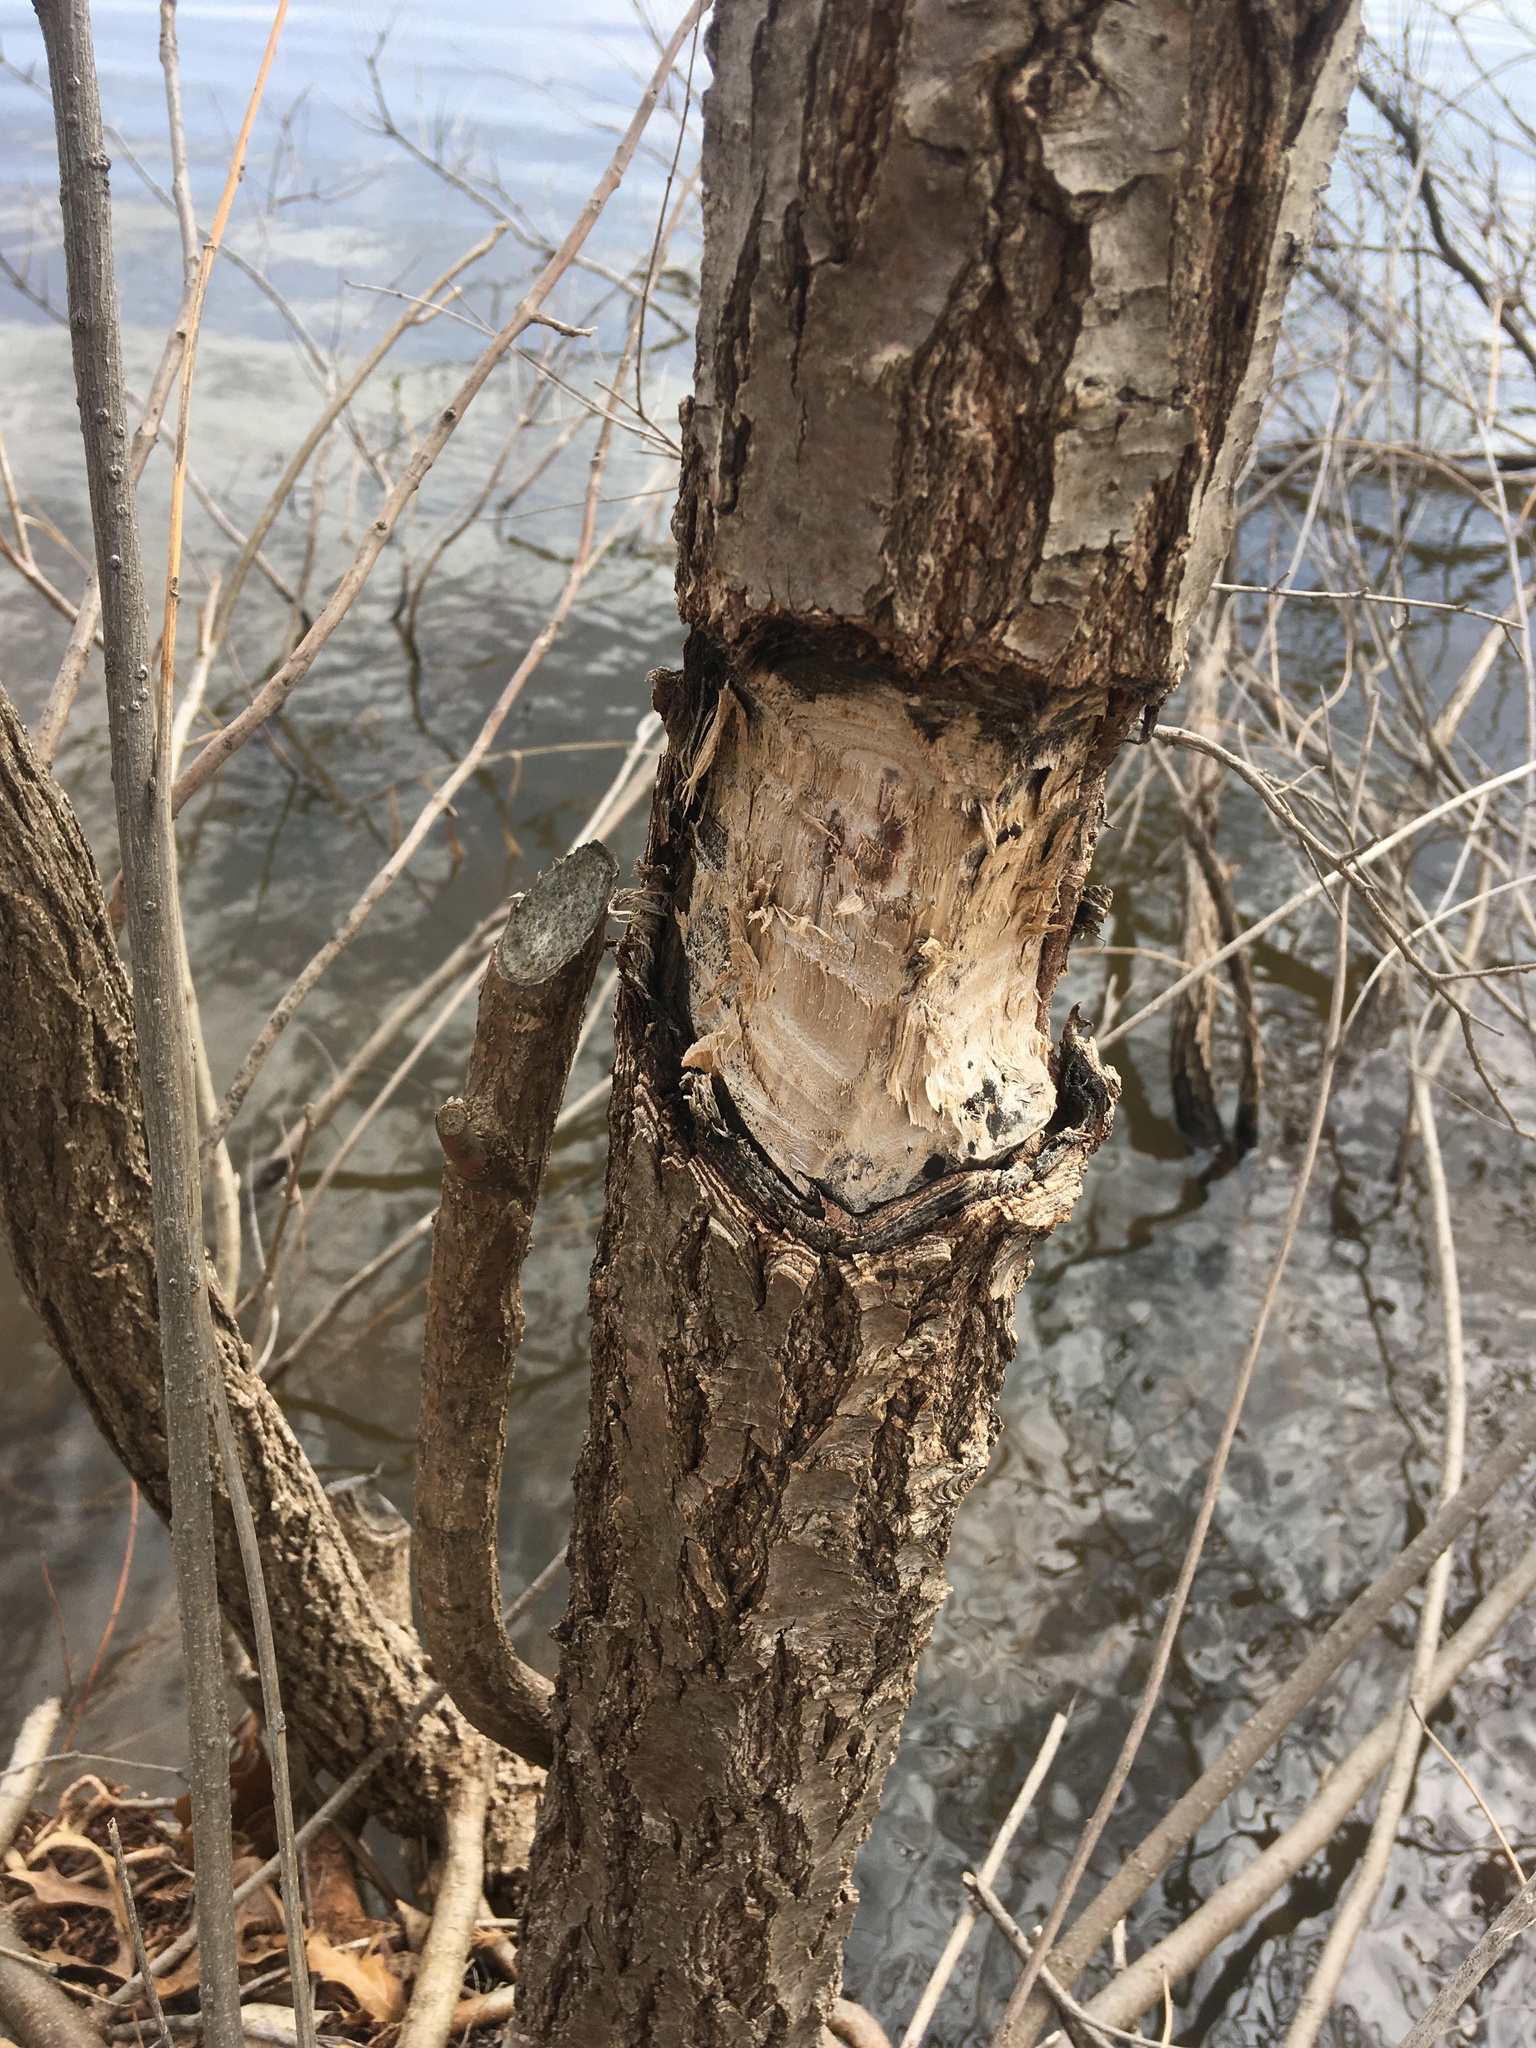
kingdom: Animalia
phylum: Chordata
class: Mammalia
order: Rodentia
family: Castoridae
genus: Castor
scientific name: Castor canadensis
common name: American beaver
